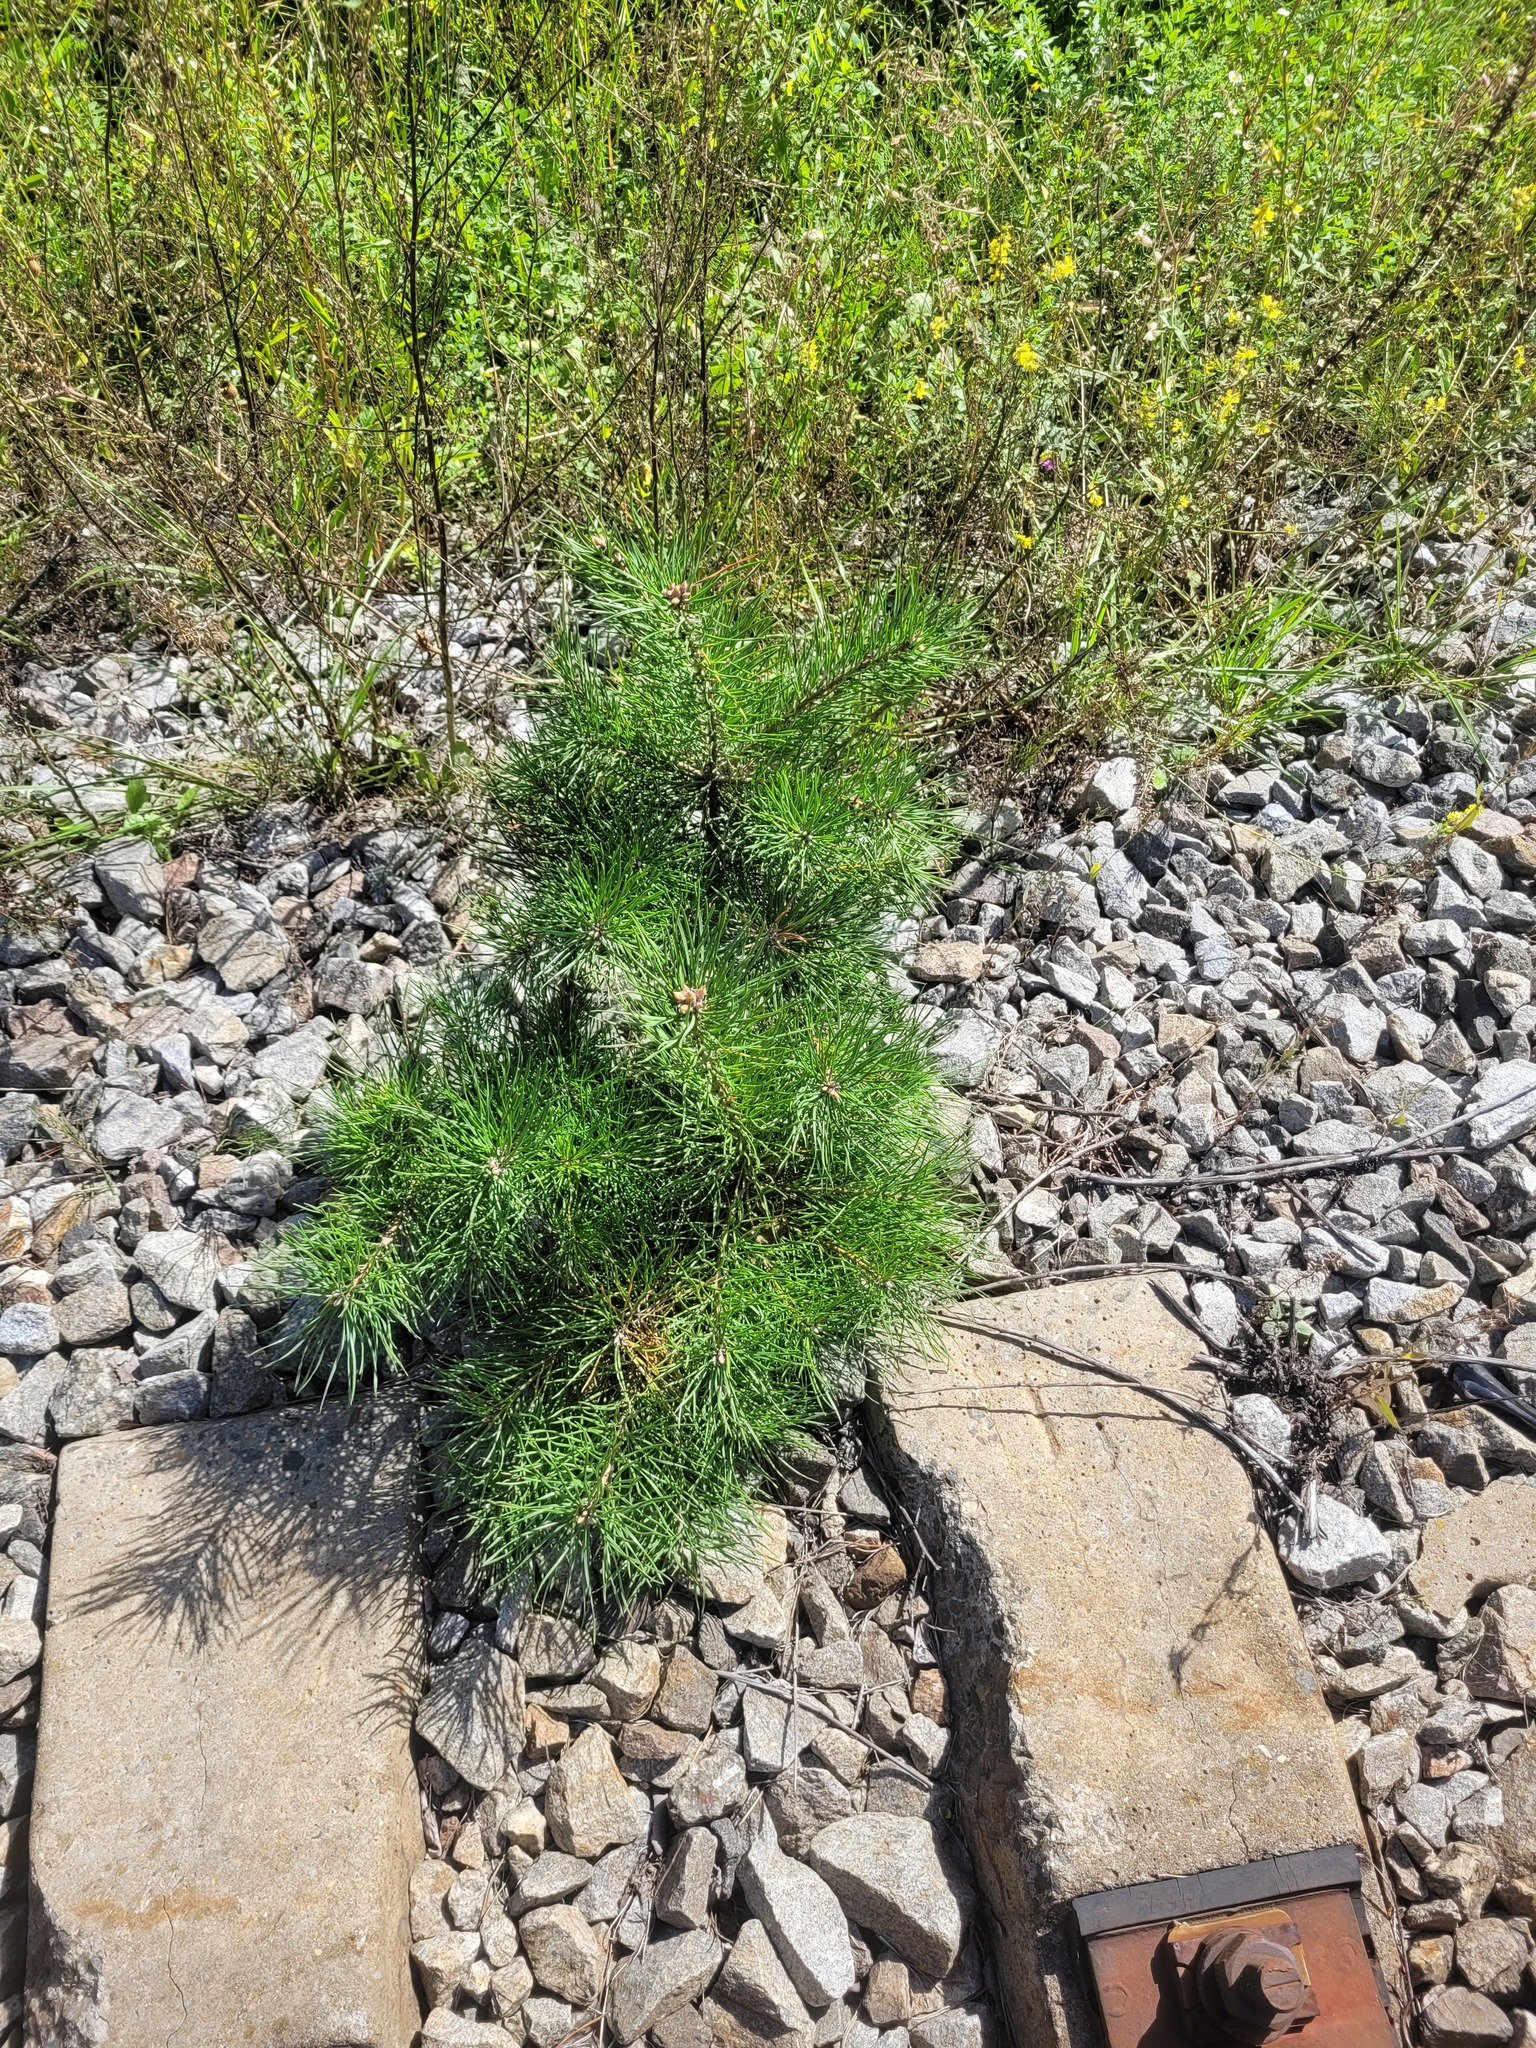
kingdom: Plantae
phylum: Tracheophyta
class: Pinopsida
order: Pinales
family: Pinaceae
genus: Pinus
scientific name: Pinus sylvestris
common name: Scots pine
